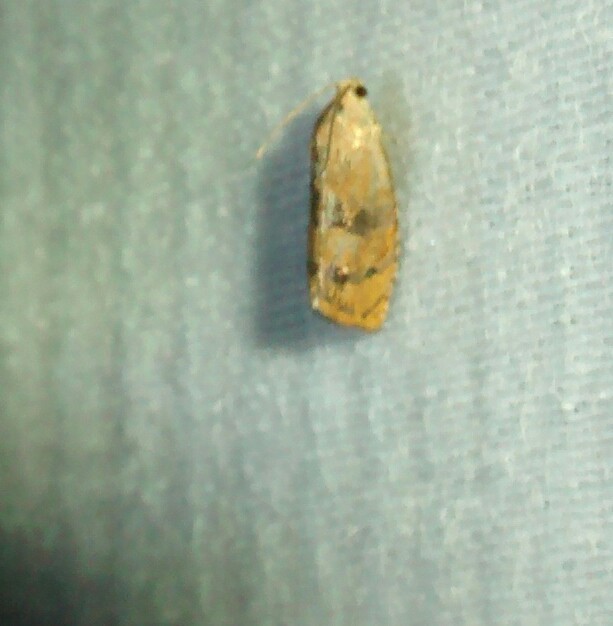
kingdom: Animalia
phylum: Arthropoda
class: Insecta
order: Lepidoptera
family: Tortricidae
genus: Cydia
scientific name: Cydia latiferreana
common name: Filbertworm moth
